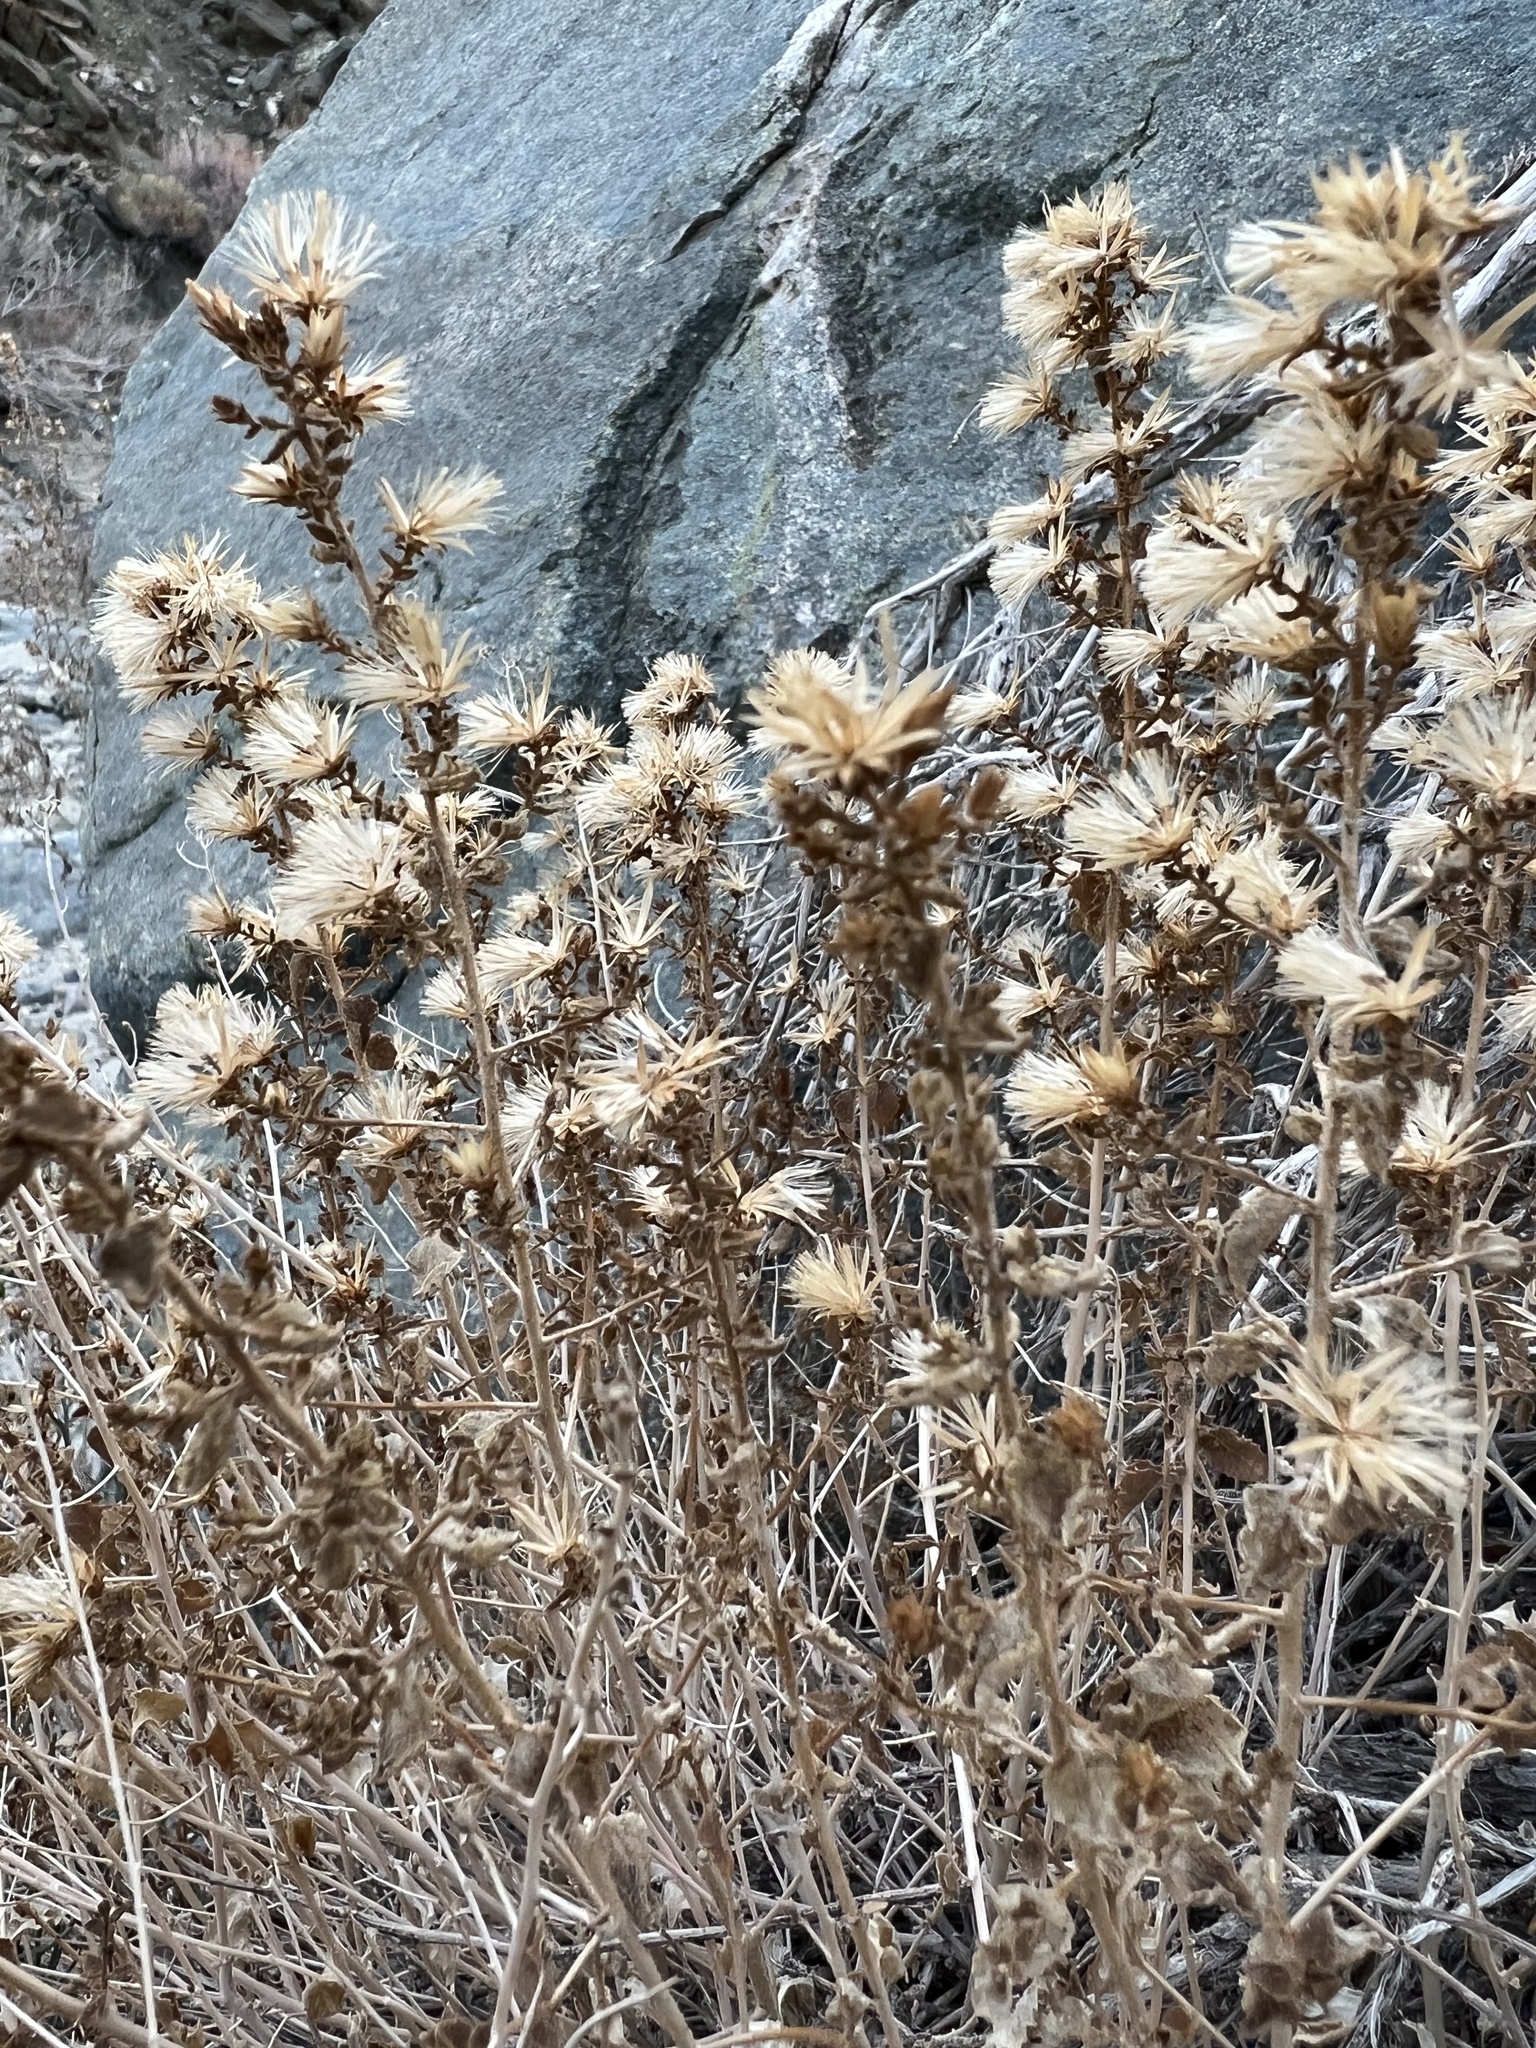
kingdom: Plantae
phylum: Tracheophyta
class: Magnoliopsida
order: Asterales
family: Asteraceae
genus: Brickellia
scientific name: Brickellia microphylla
